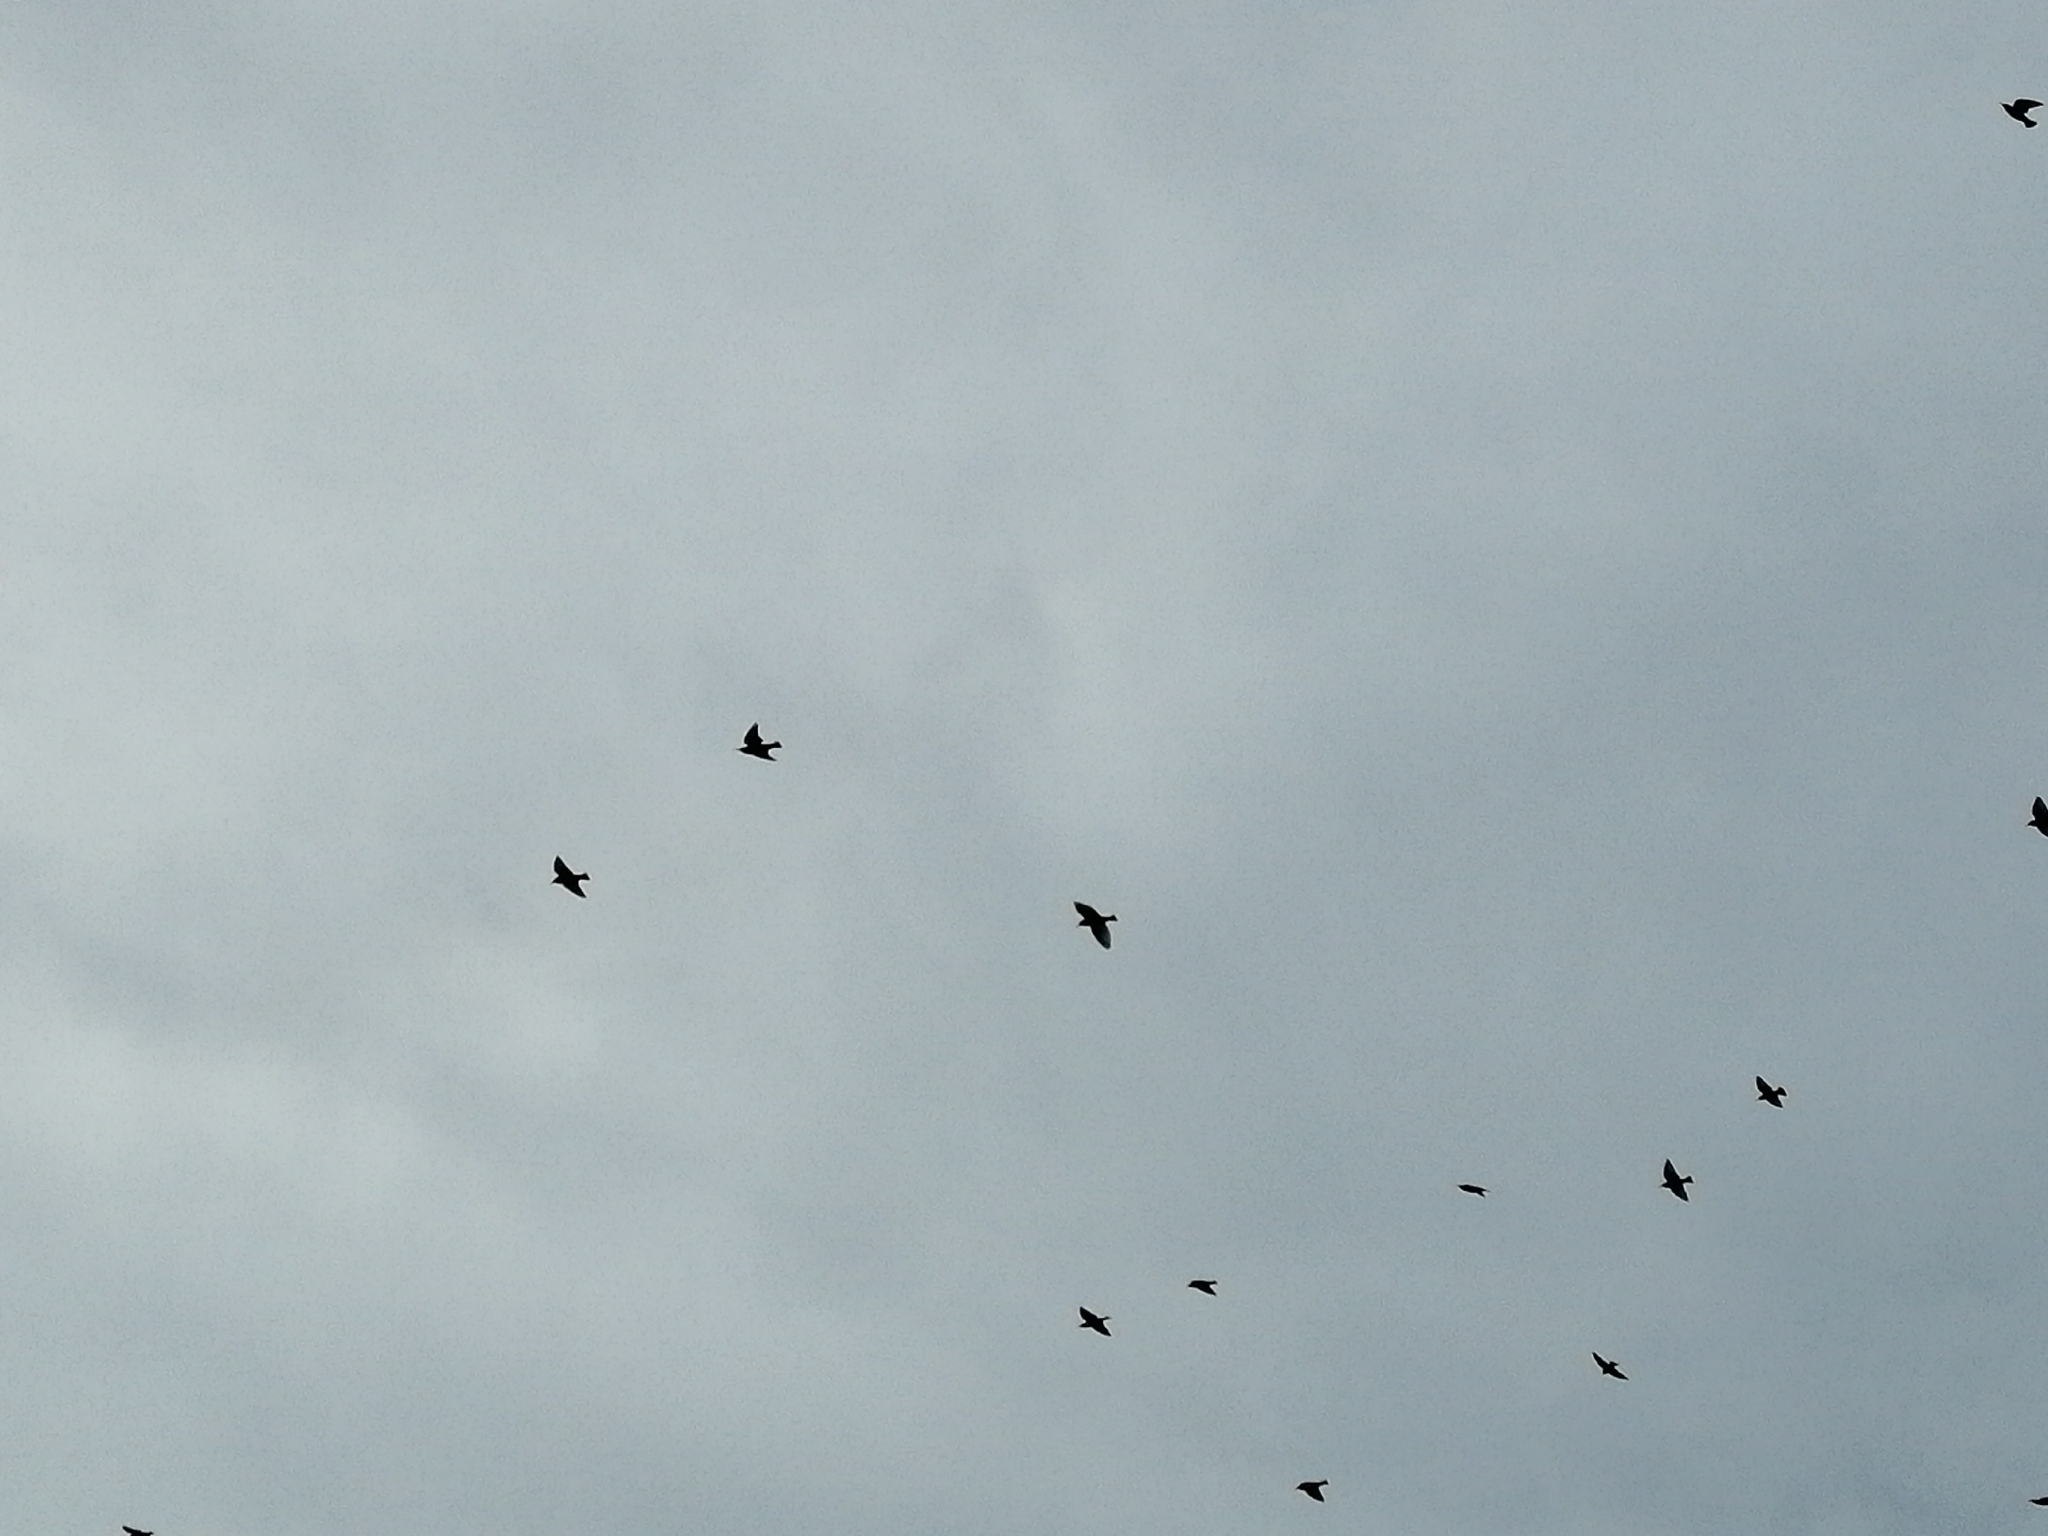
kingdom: Animalia
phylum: Chordata
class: Aves
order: Passeriformes
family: Sturnidae
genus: Sturnus
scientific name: Sturnus vulgaris
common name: Common starling
